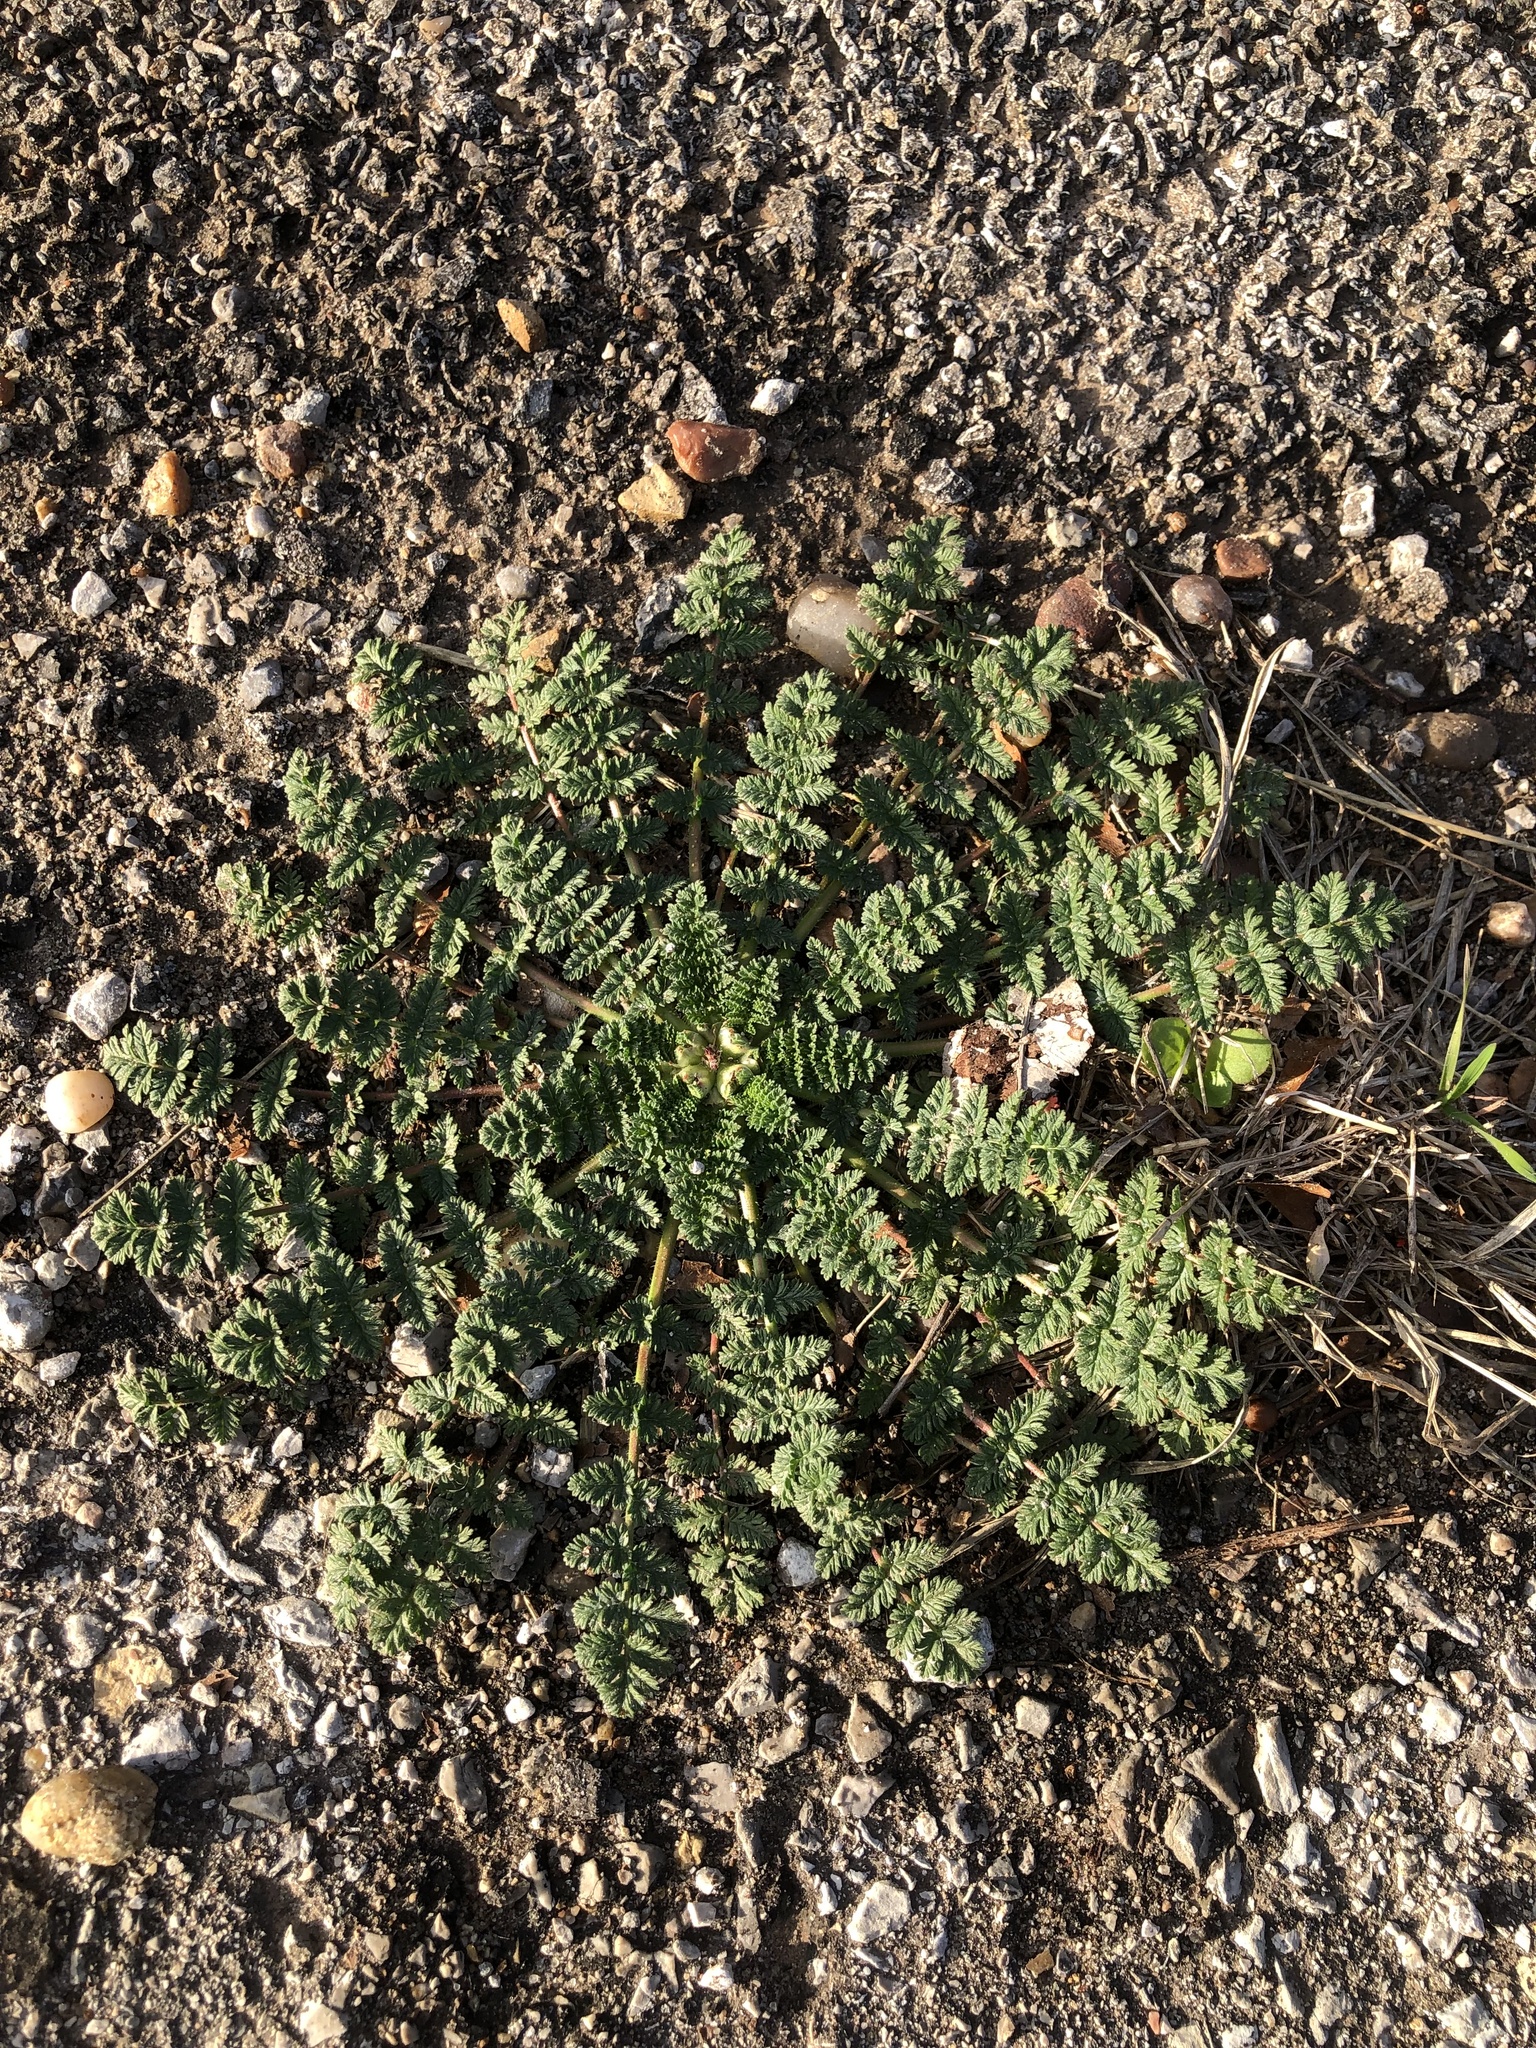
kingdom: Plantae
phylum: Tracheophyta
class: Magnoliopsida
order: Geraniales
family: Geraniaceae
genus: Erodium
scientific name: Erodium cicutarium
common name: Common stork's-bill
